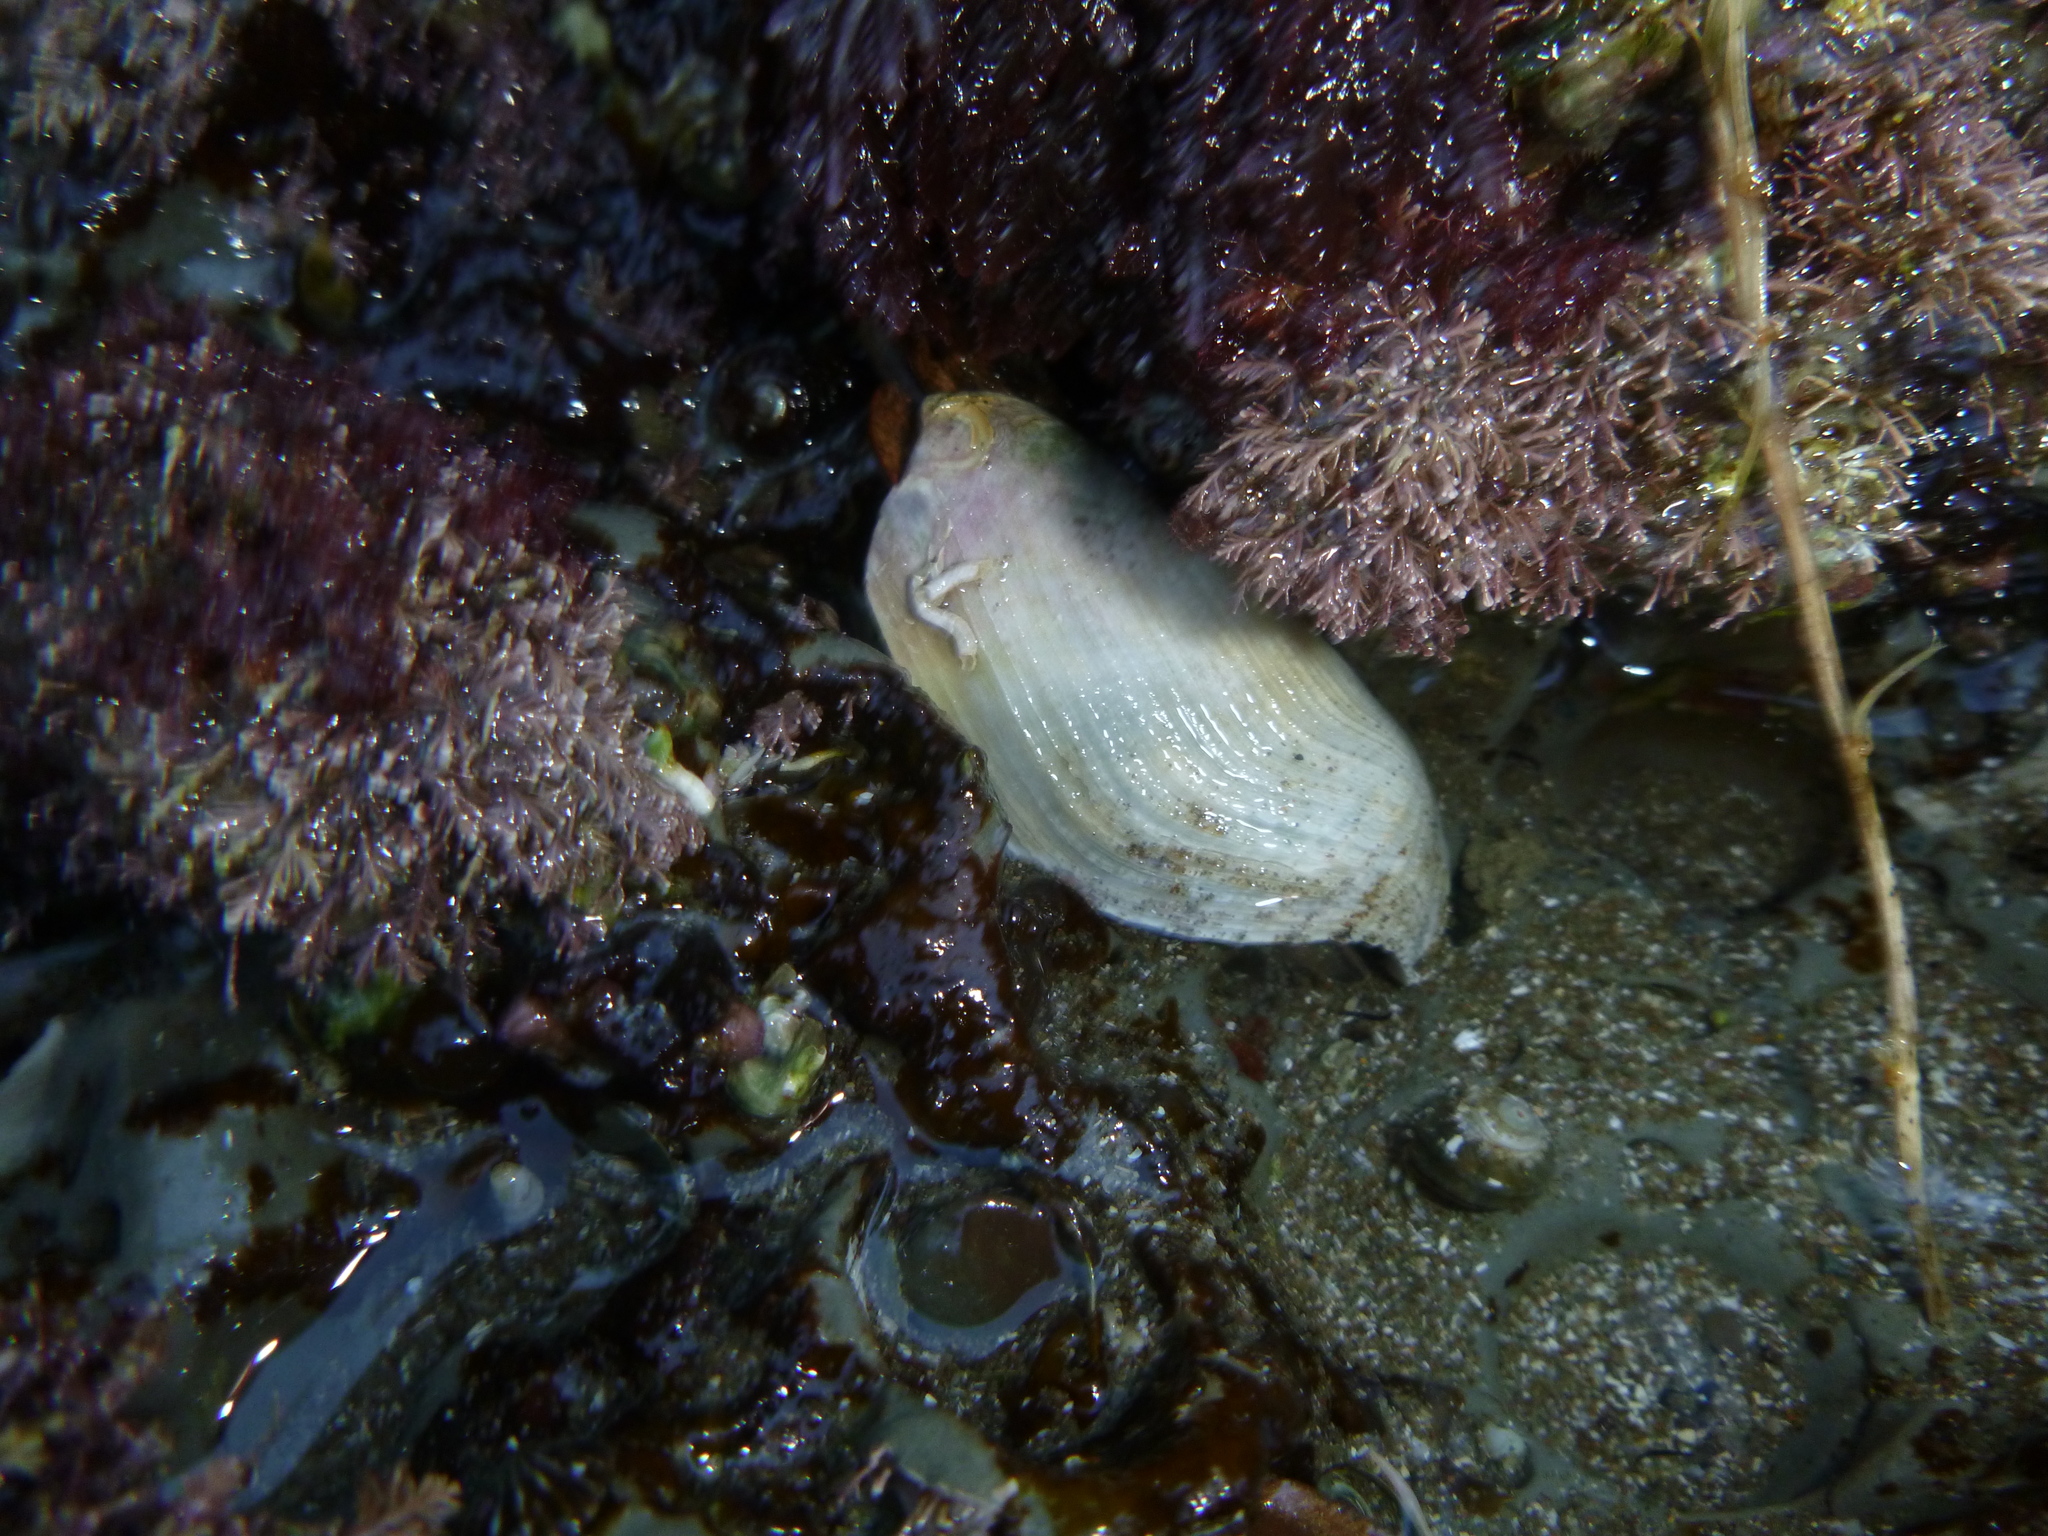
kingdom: Animalia
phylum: Mollusca
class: Bivalvia
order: Myida
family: Pholadidae
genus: Barnea
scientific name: Barnea similis
